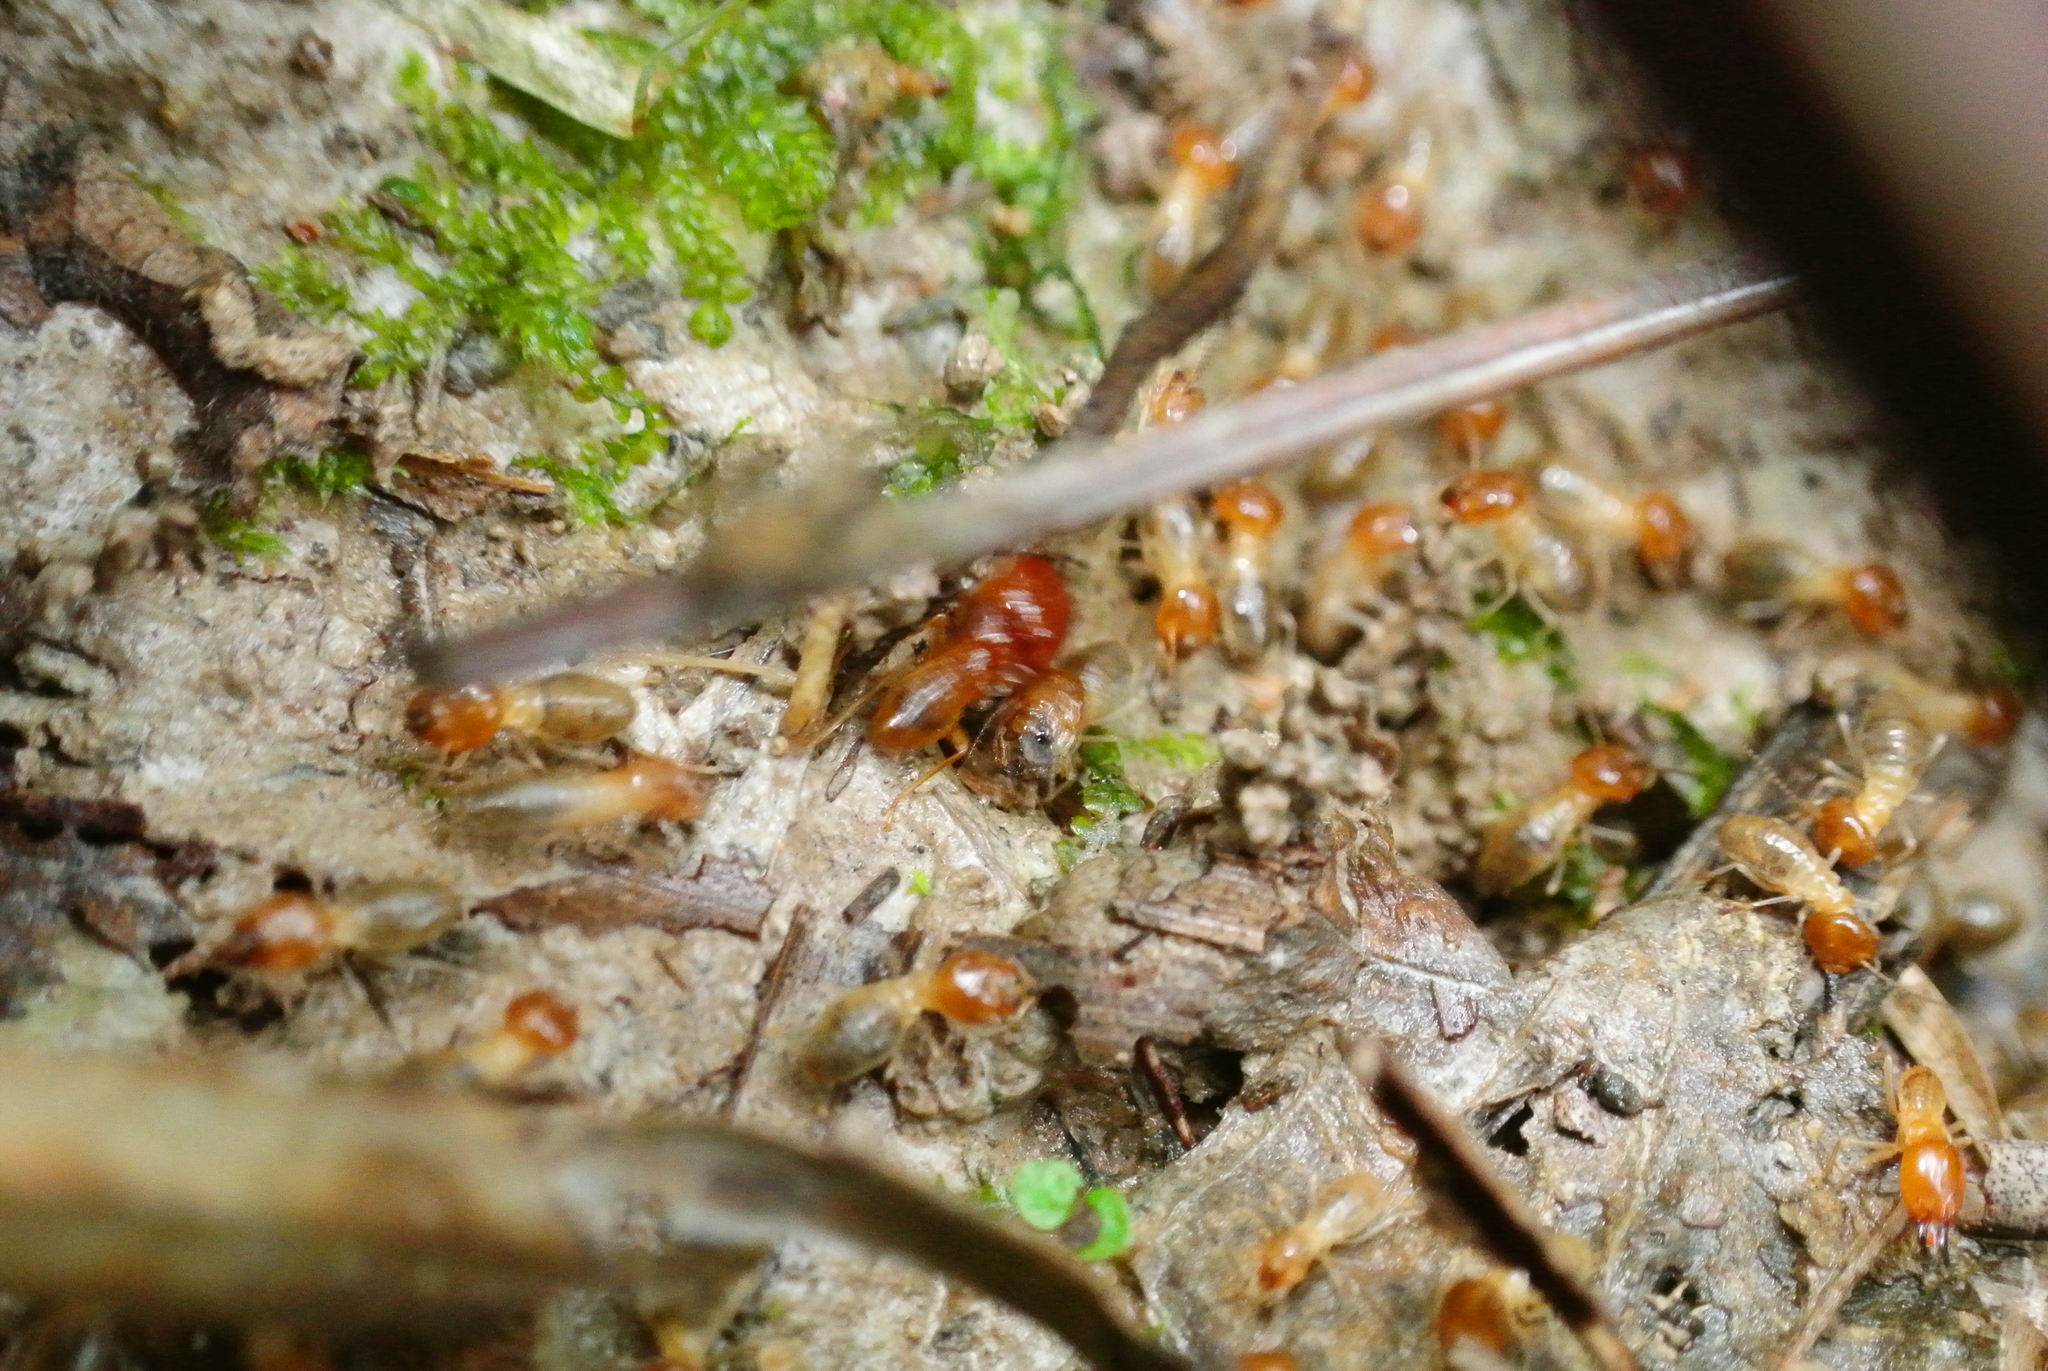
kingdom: Animalia
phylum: Arthropoda
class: Insecta
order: Blattodea
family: Termitidae
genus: Macrotermes
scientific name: Macrotermes gilvus
